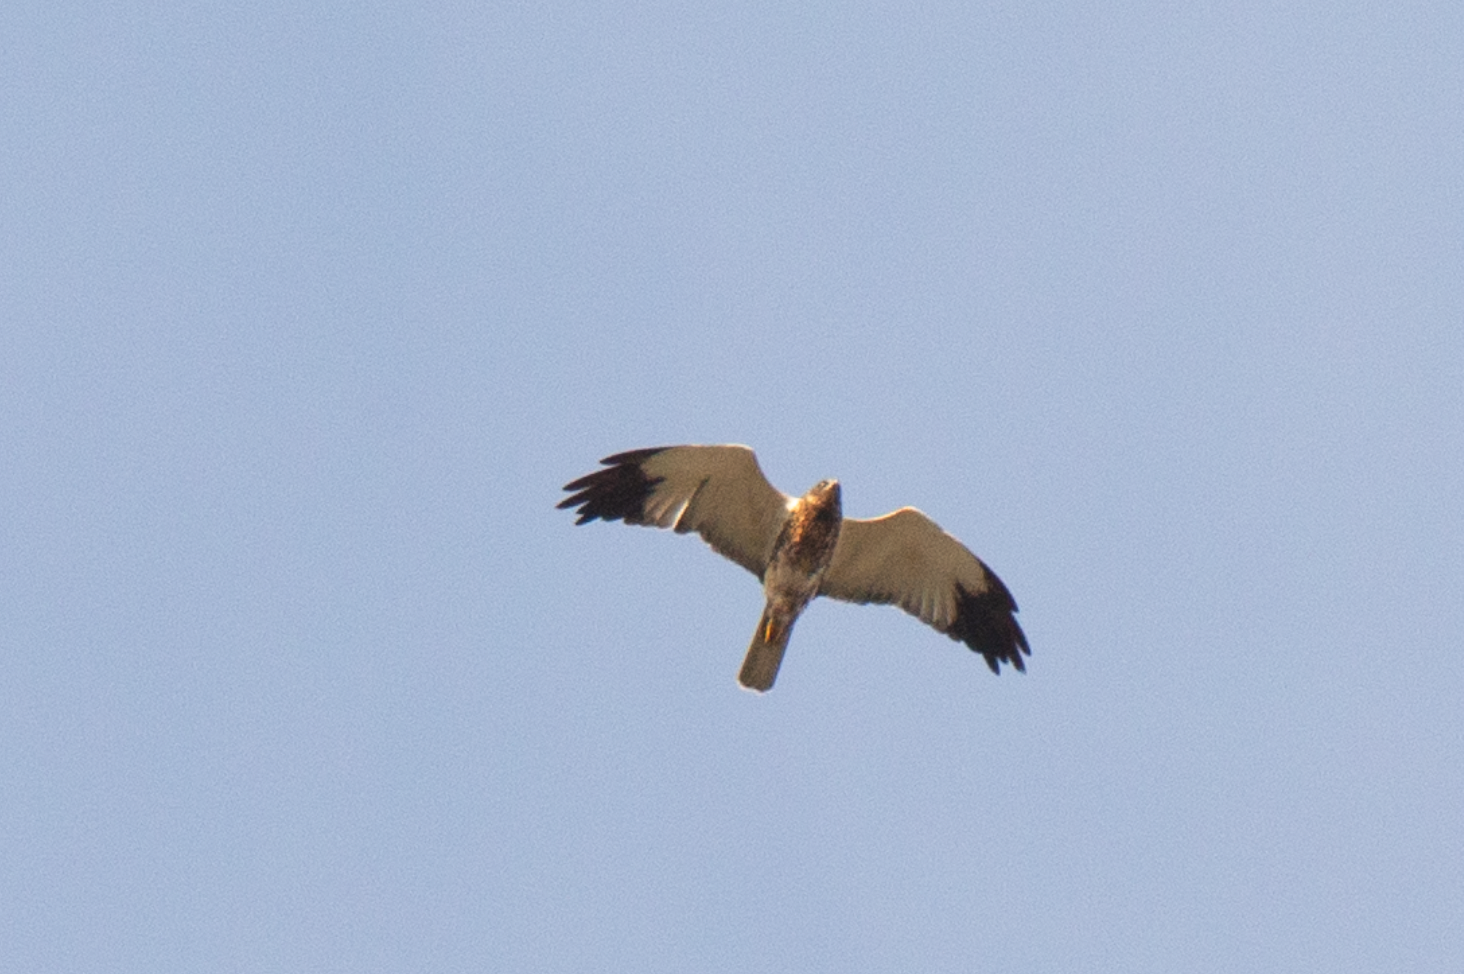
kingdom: Animalia
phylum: Chordata
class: Aves
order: Accipitriformes
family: Accipitridae
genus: Circus
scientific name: Circus aeruginosus
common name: Western marsh harrier
